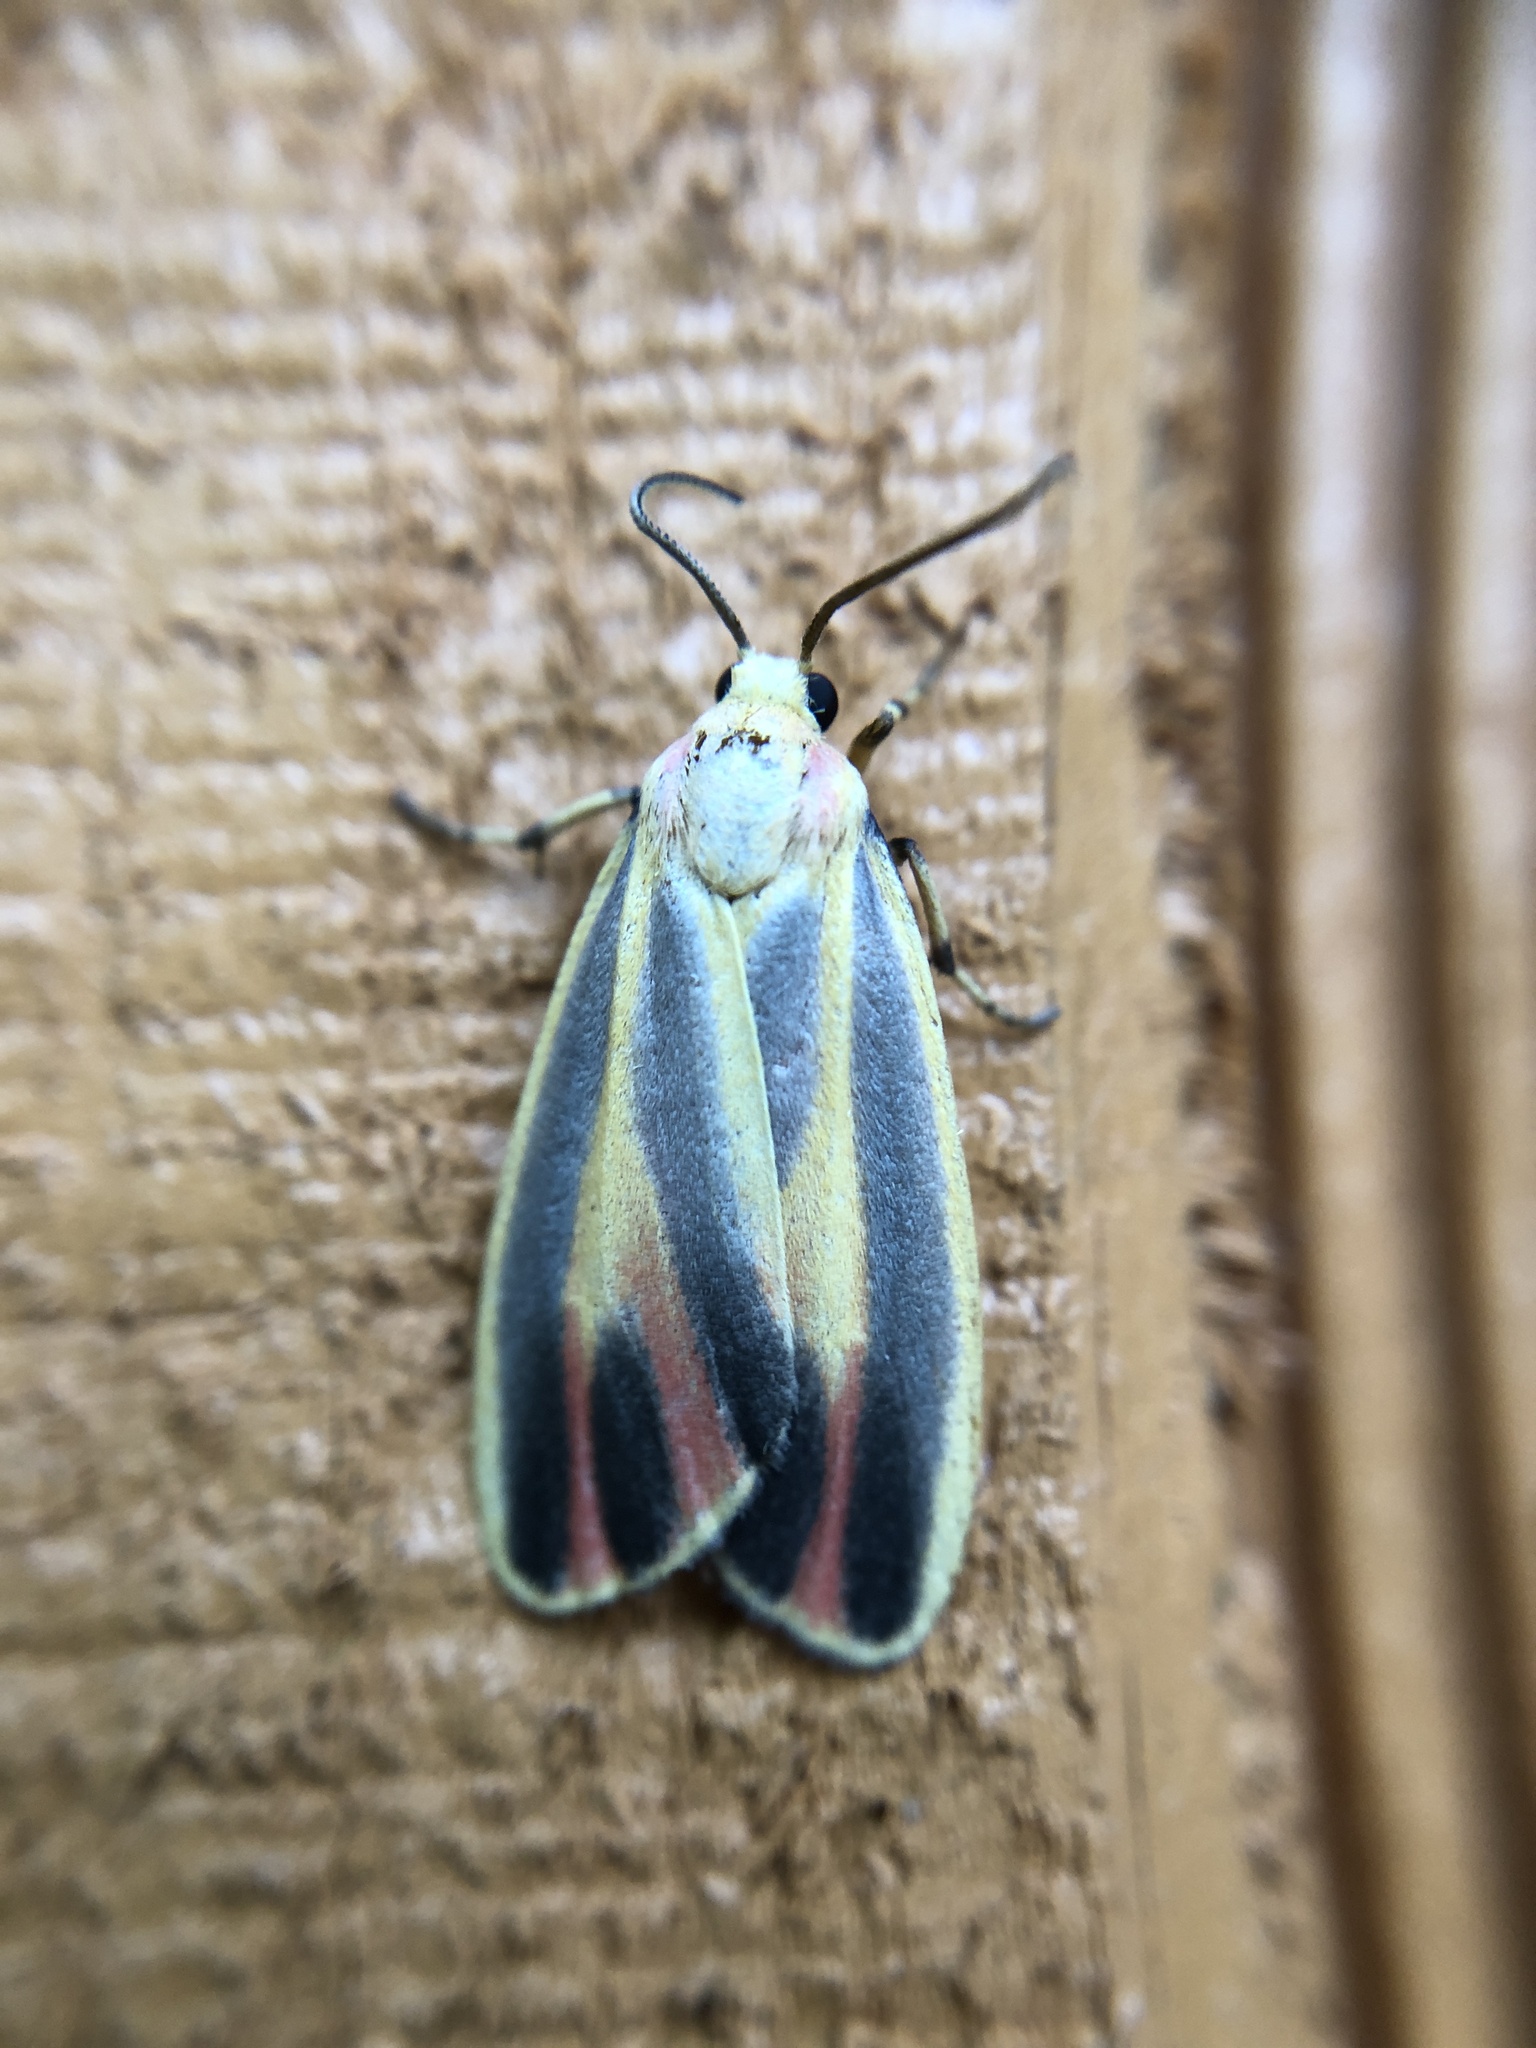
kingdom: Animalia
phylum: Arthropoda
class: Insecta
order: Lepidoptera
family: Erebidae
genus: Hypoprepia
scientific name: Hypoprepia fucosa
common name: Painted lichen moth
